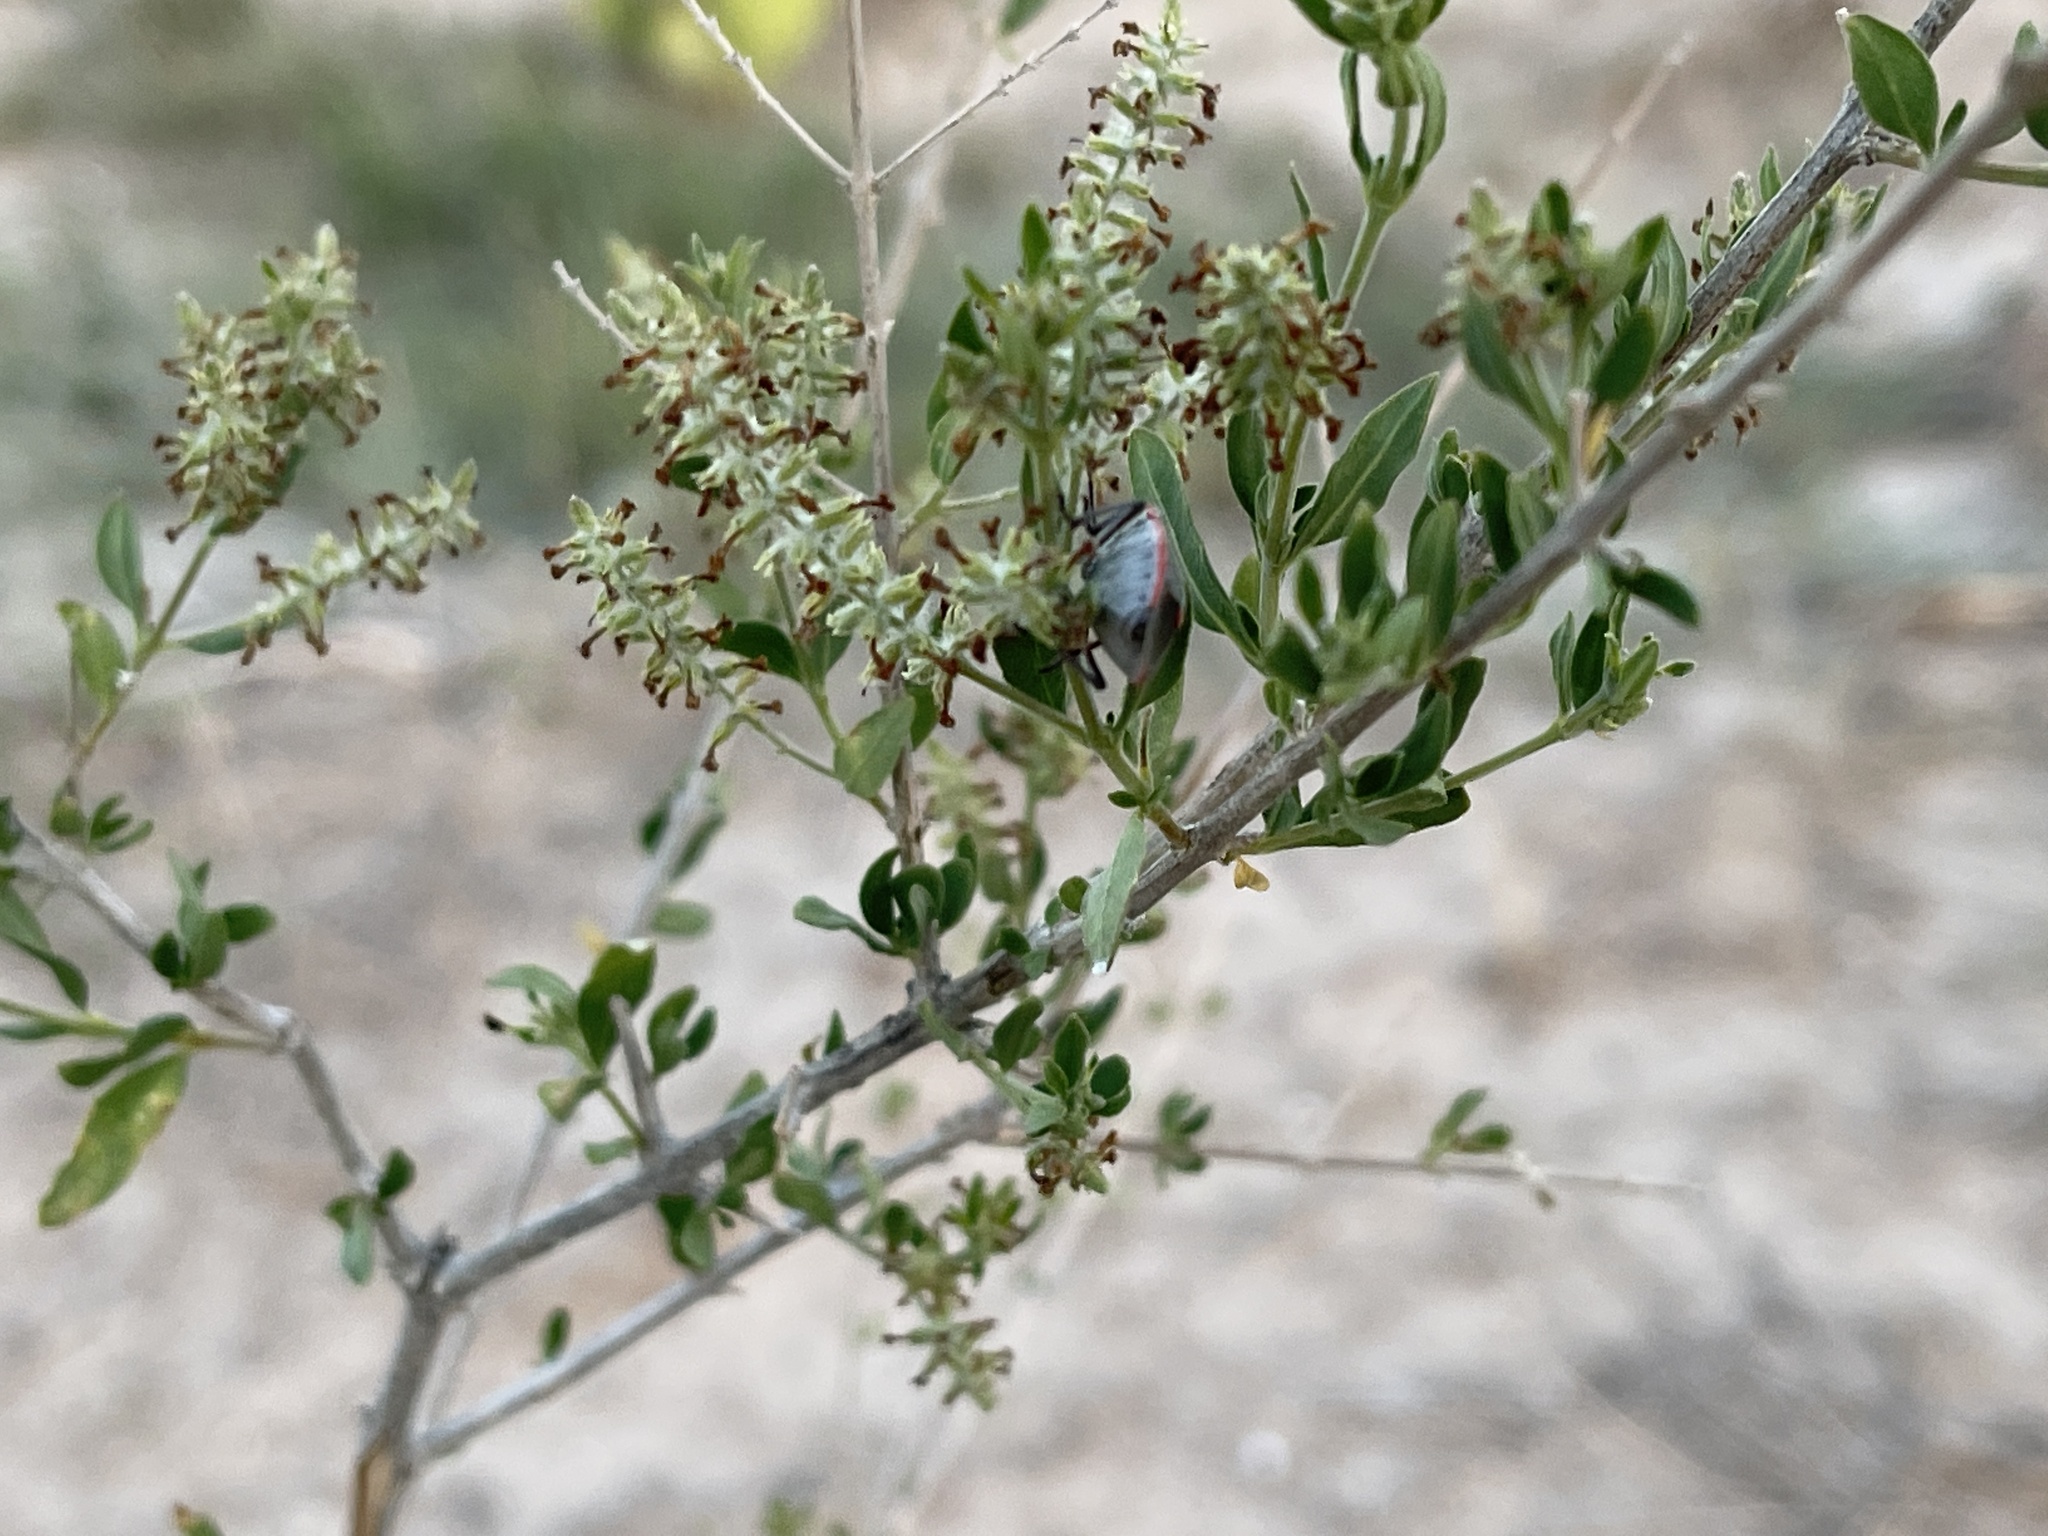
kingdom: Plantae
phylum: Tracheophyta
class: Magnoliopsida
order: Lamiales
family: Verbenaceae
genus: Aloysia
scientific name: Aloysia gratissima
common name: Common bee-brush
